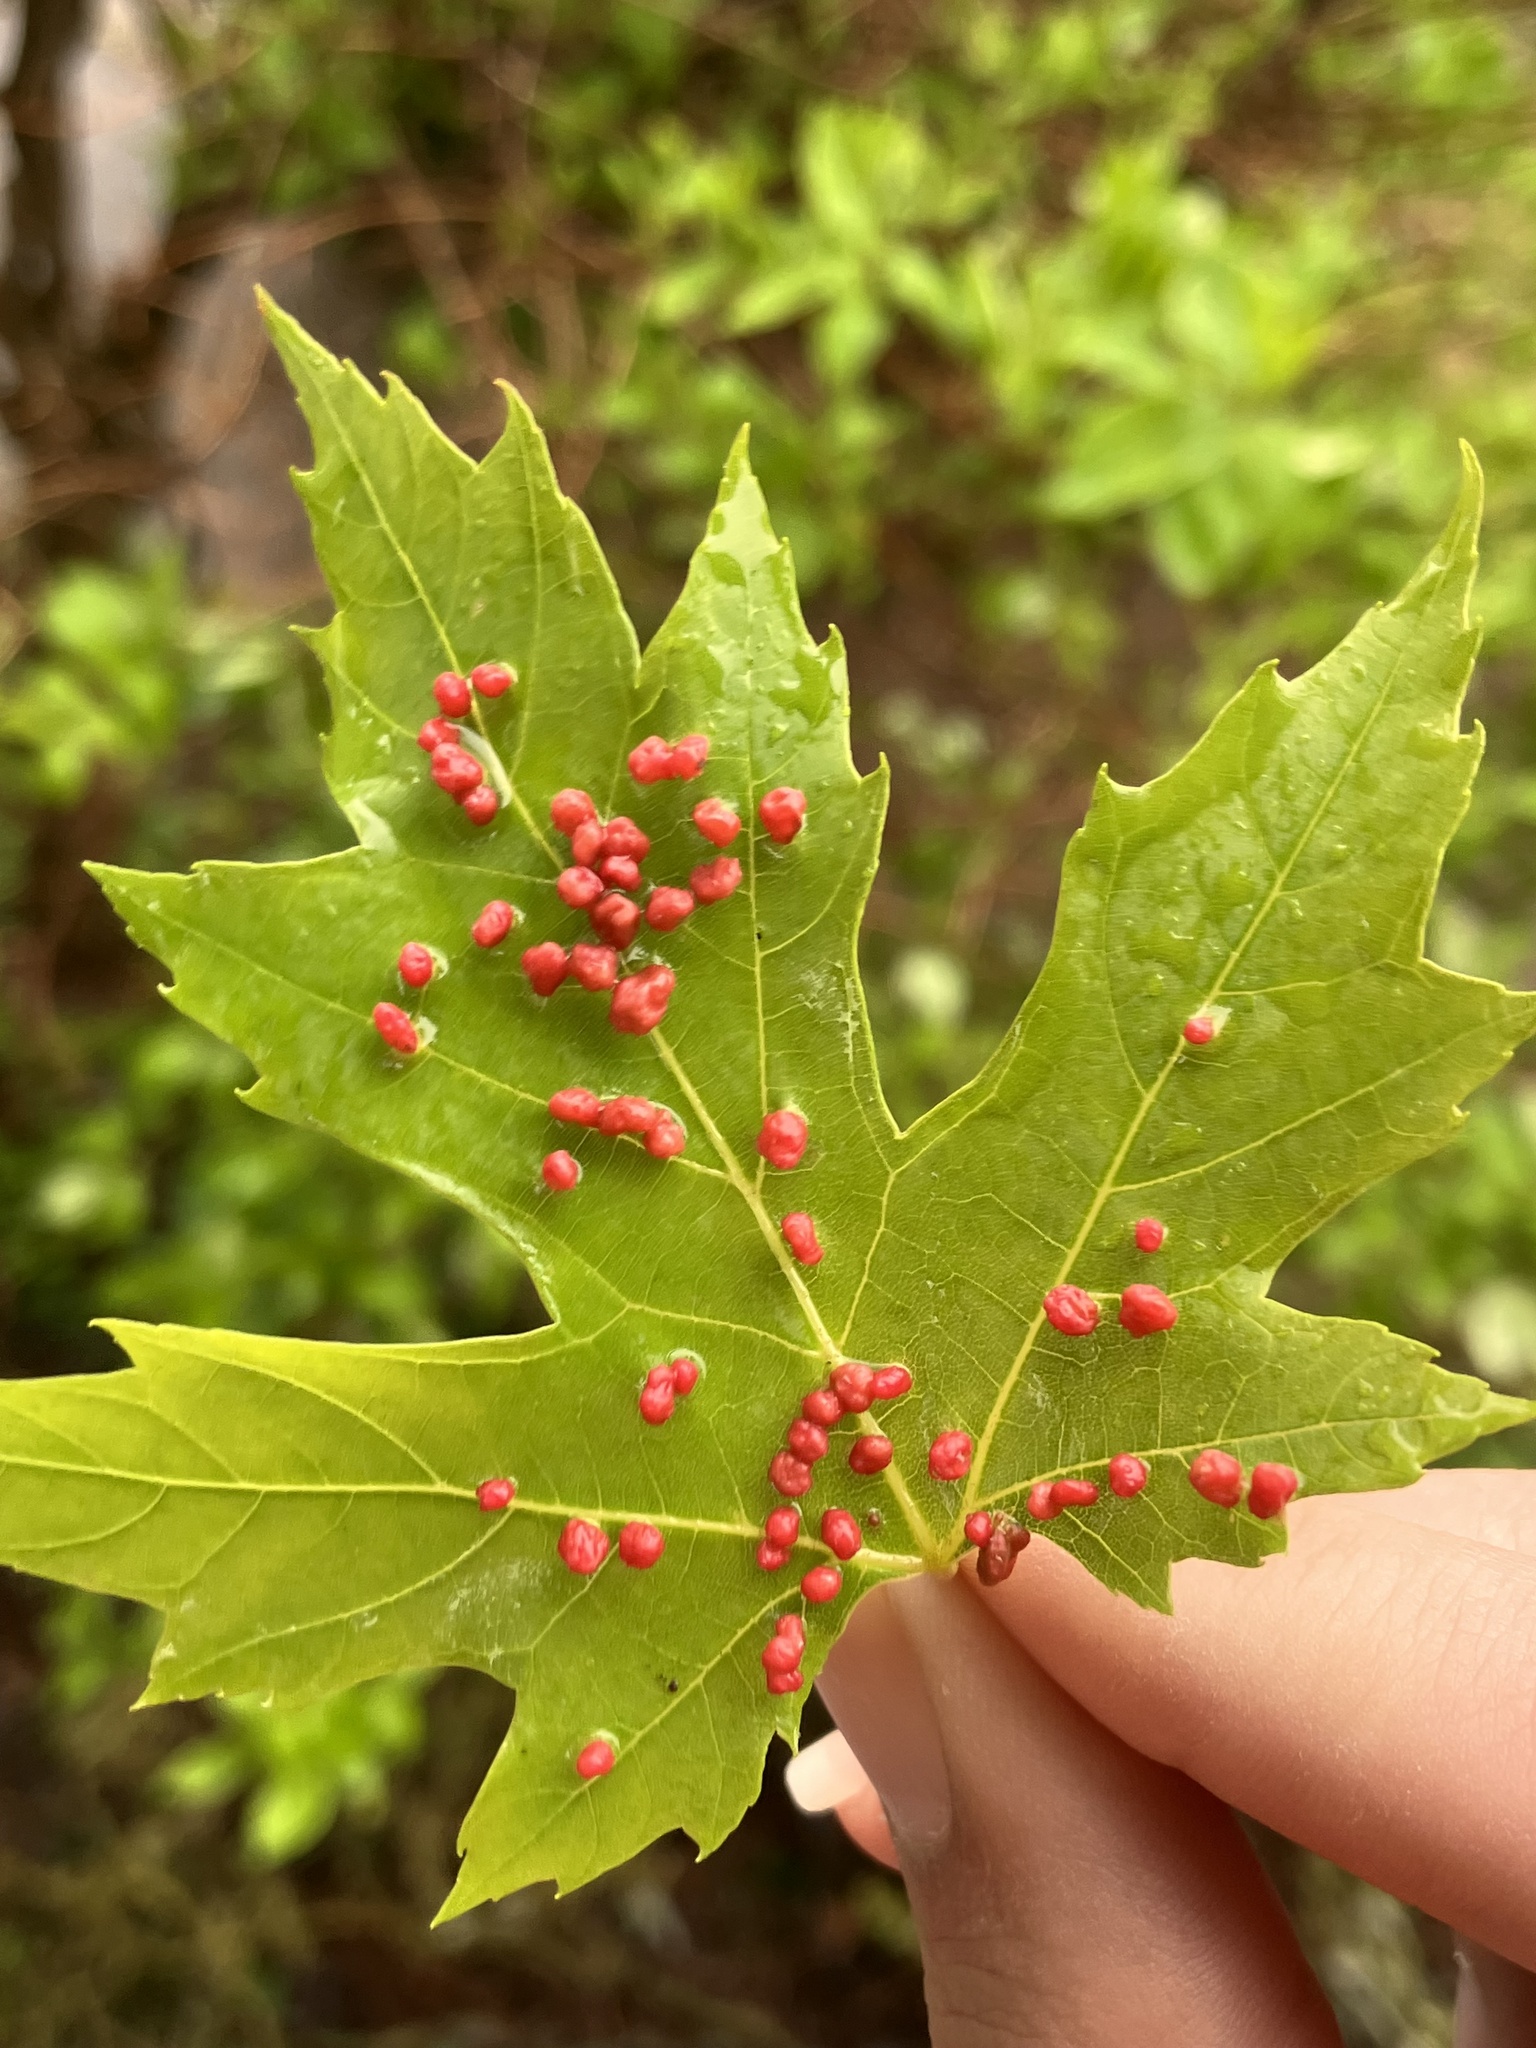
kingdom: Animalia
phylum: Arthropoda
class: Arachnida
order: Trombidiformes
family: Eriophyidae
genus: Vasates
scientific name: Vasates quadripedes
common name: Maple bladder gall mite
